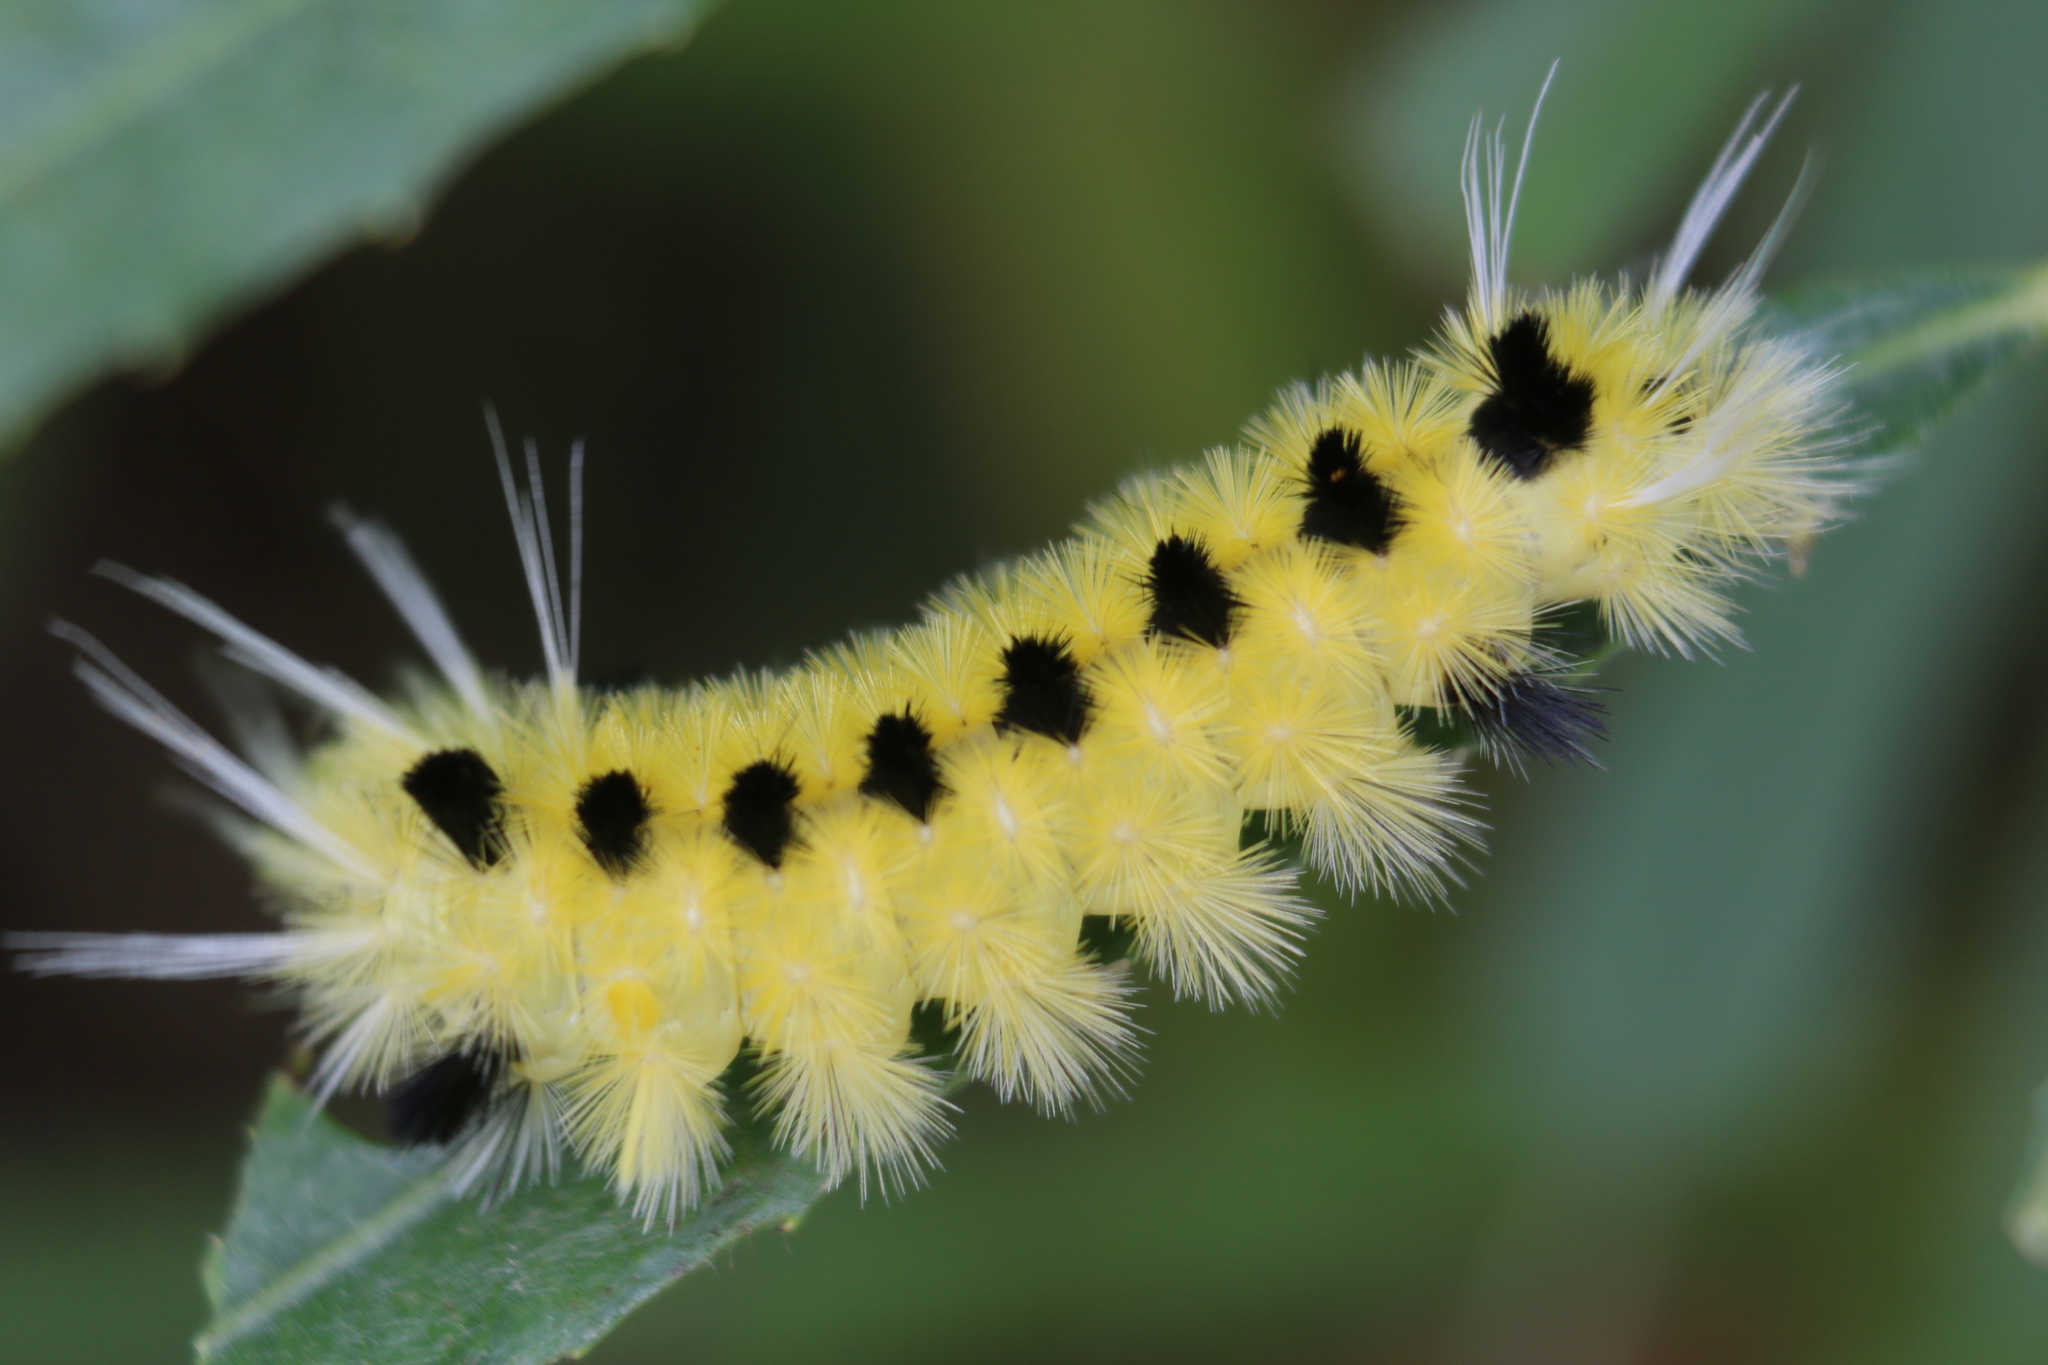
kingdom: Animalia
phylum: Arthropoda
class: Insecta
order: Lepidoptera
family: Erebidae
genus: Lophocampa
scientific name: Lophocampa maculata
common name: Spotted tussock moth
